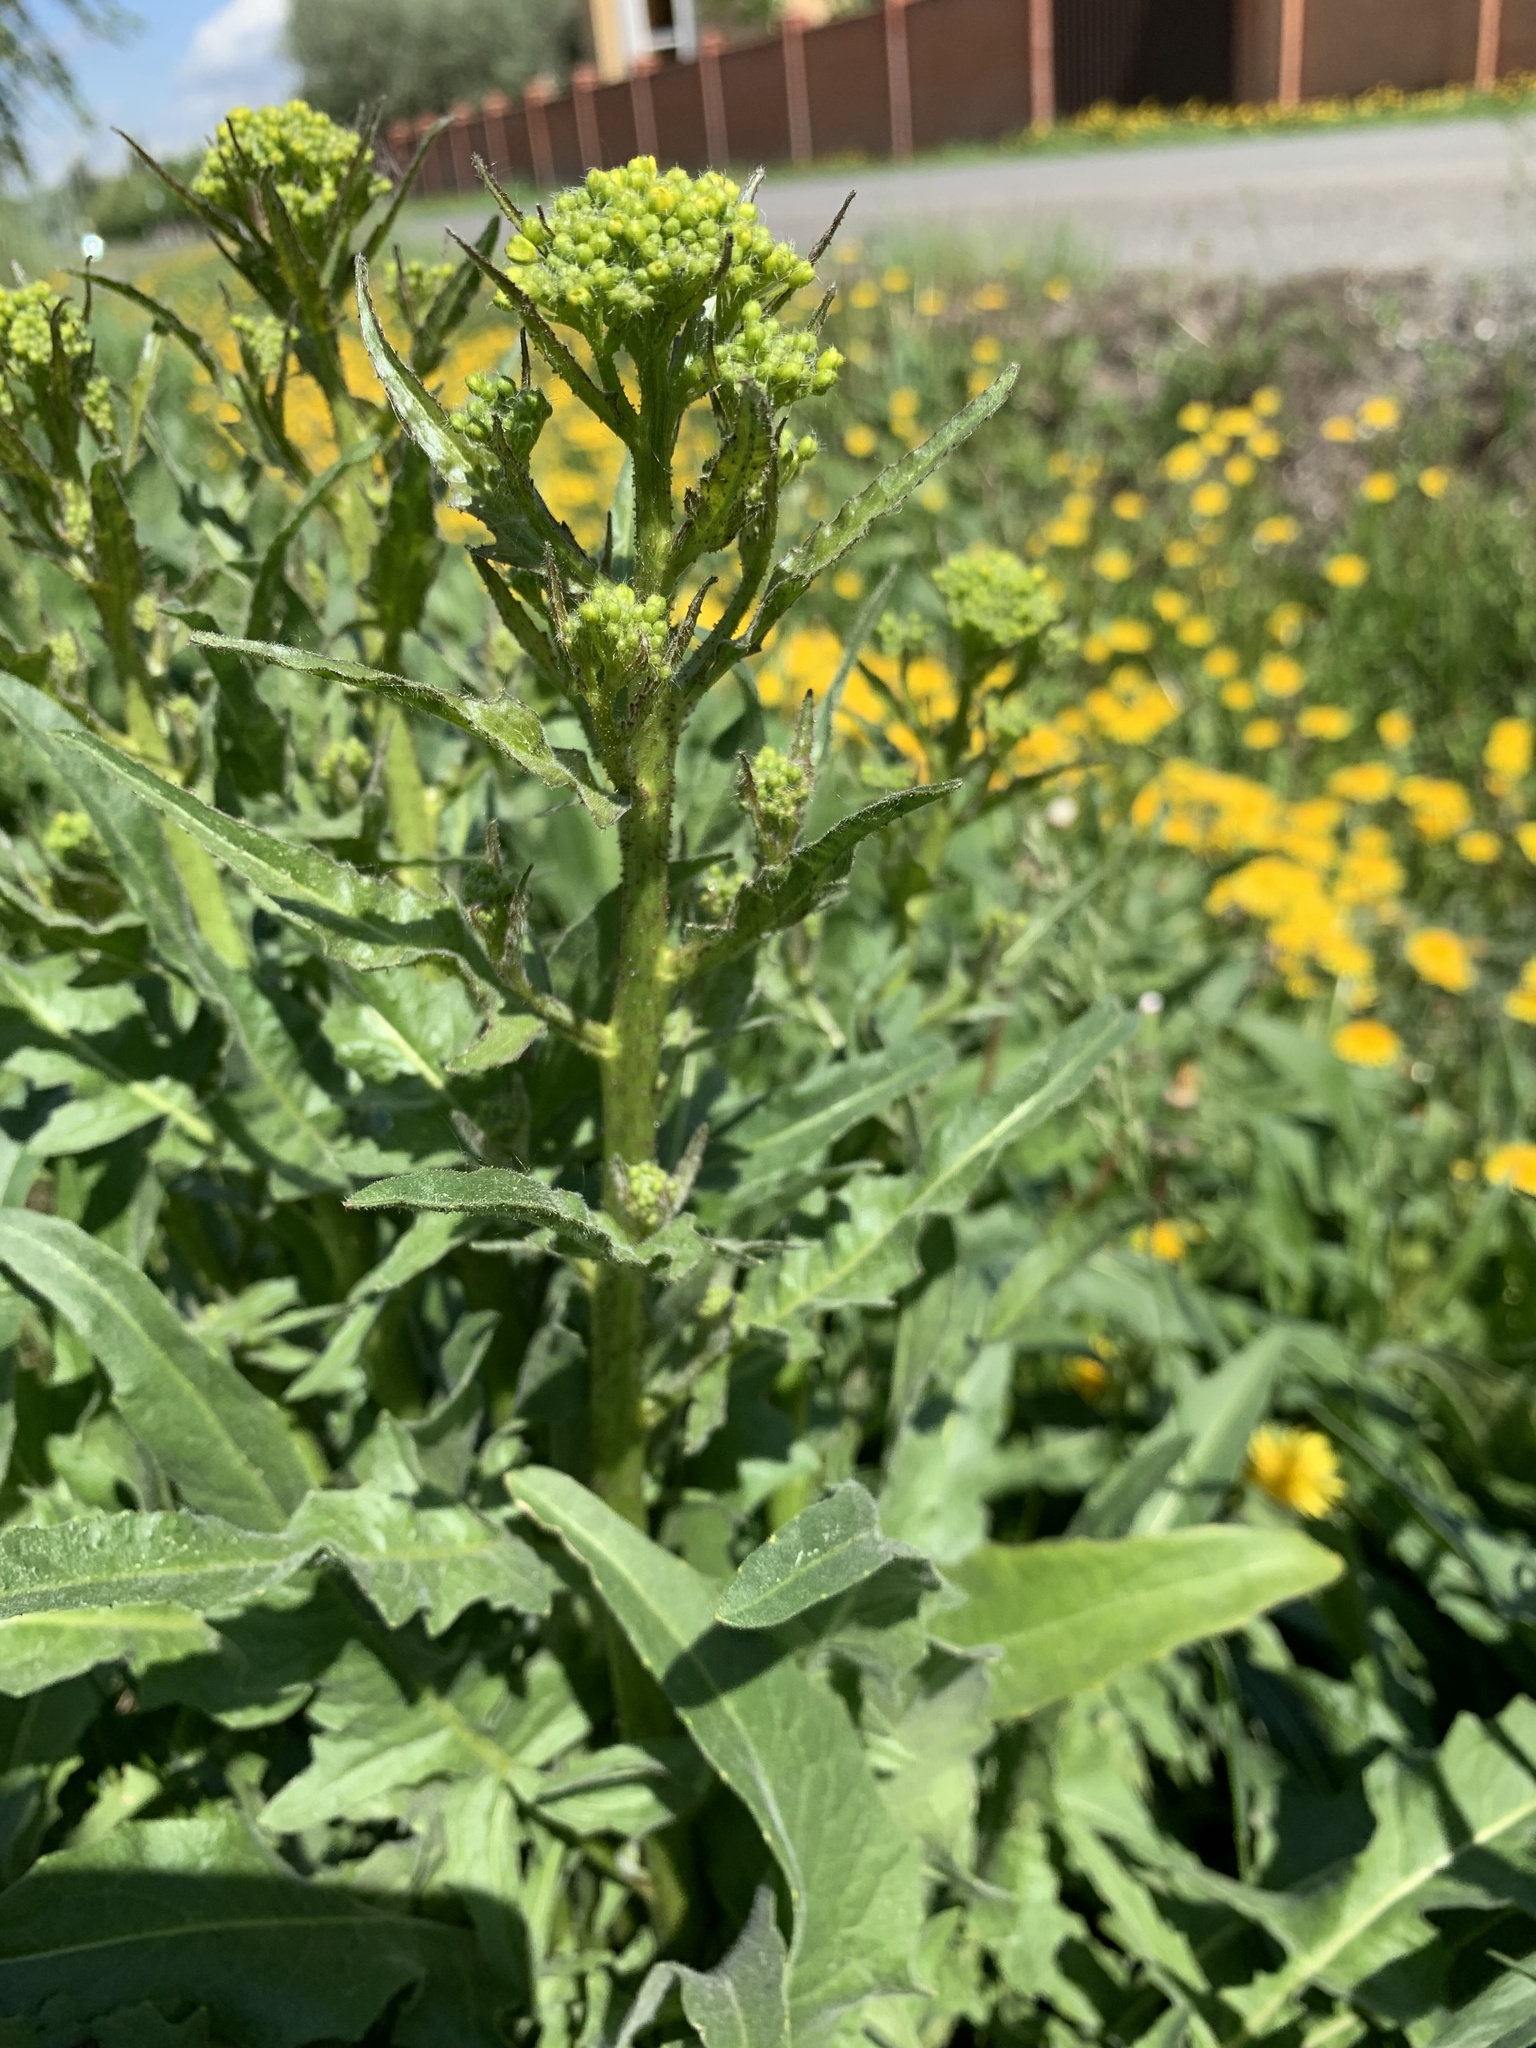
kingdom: Plantae
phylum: Tracheophyta
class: Magnoliopsida
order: Brassicales
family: Brassicaceae
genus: Bunias
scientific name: Bunias orientalis
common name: Warty-cabbage
